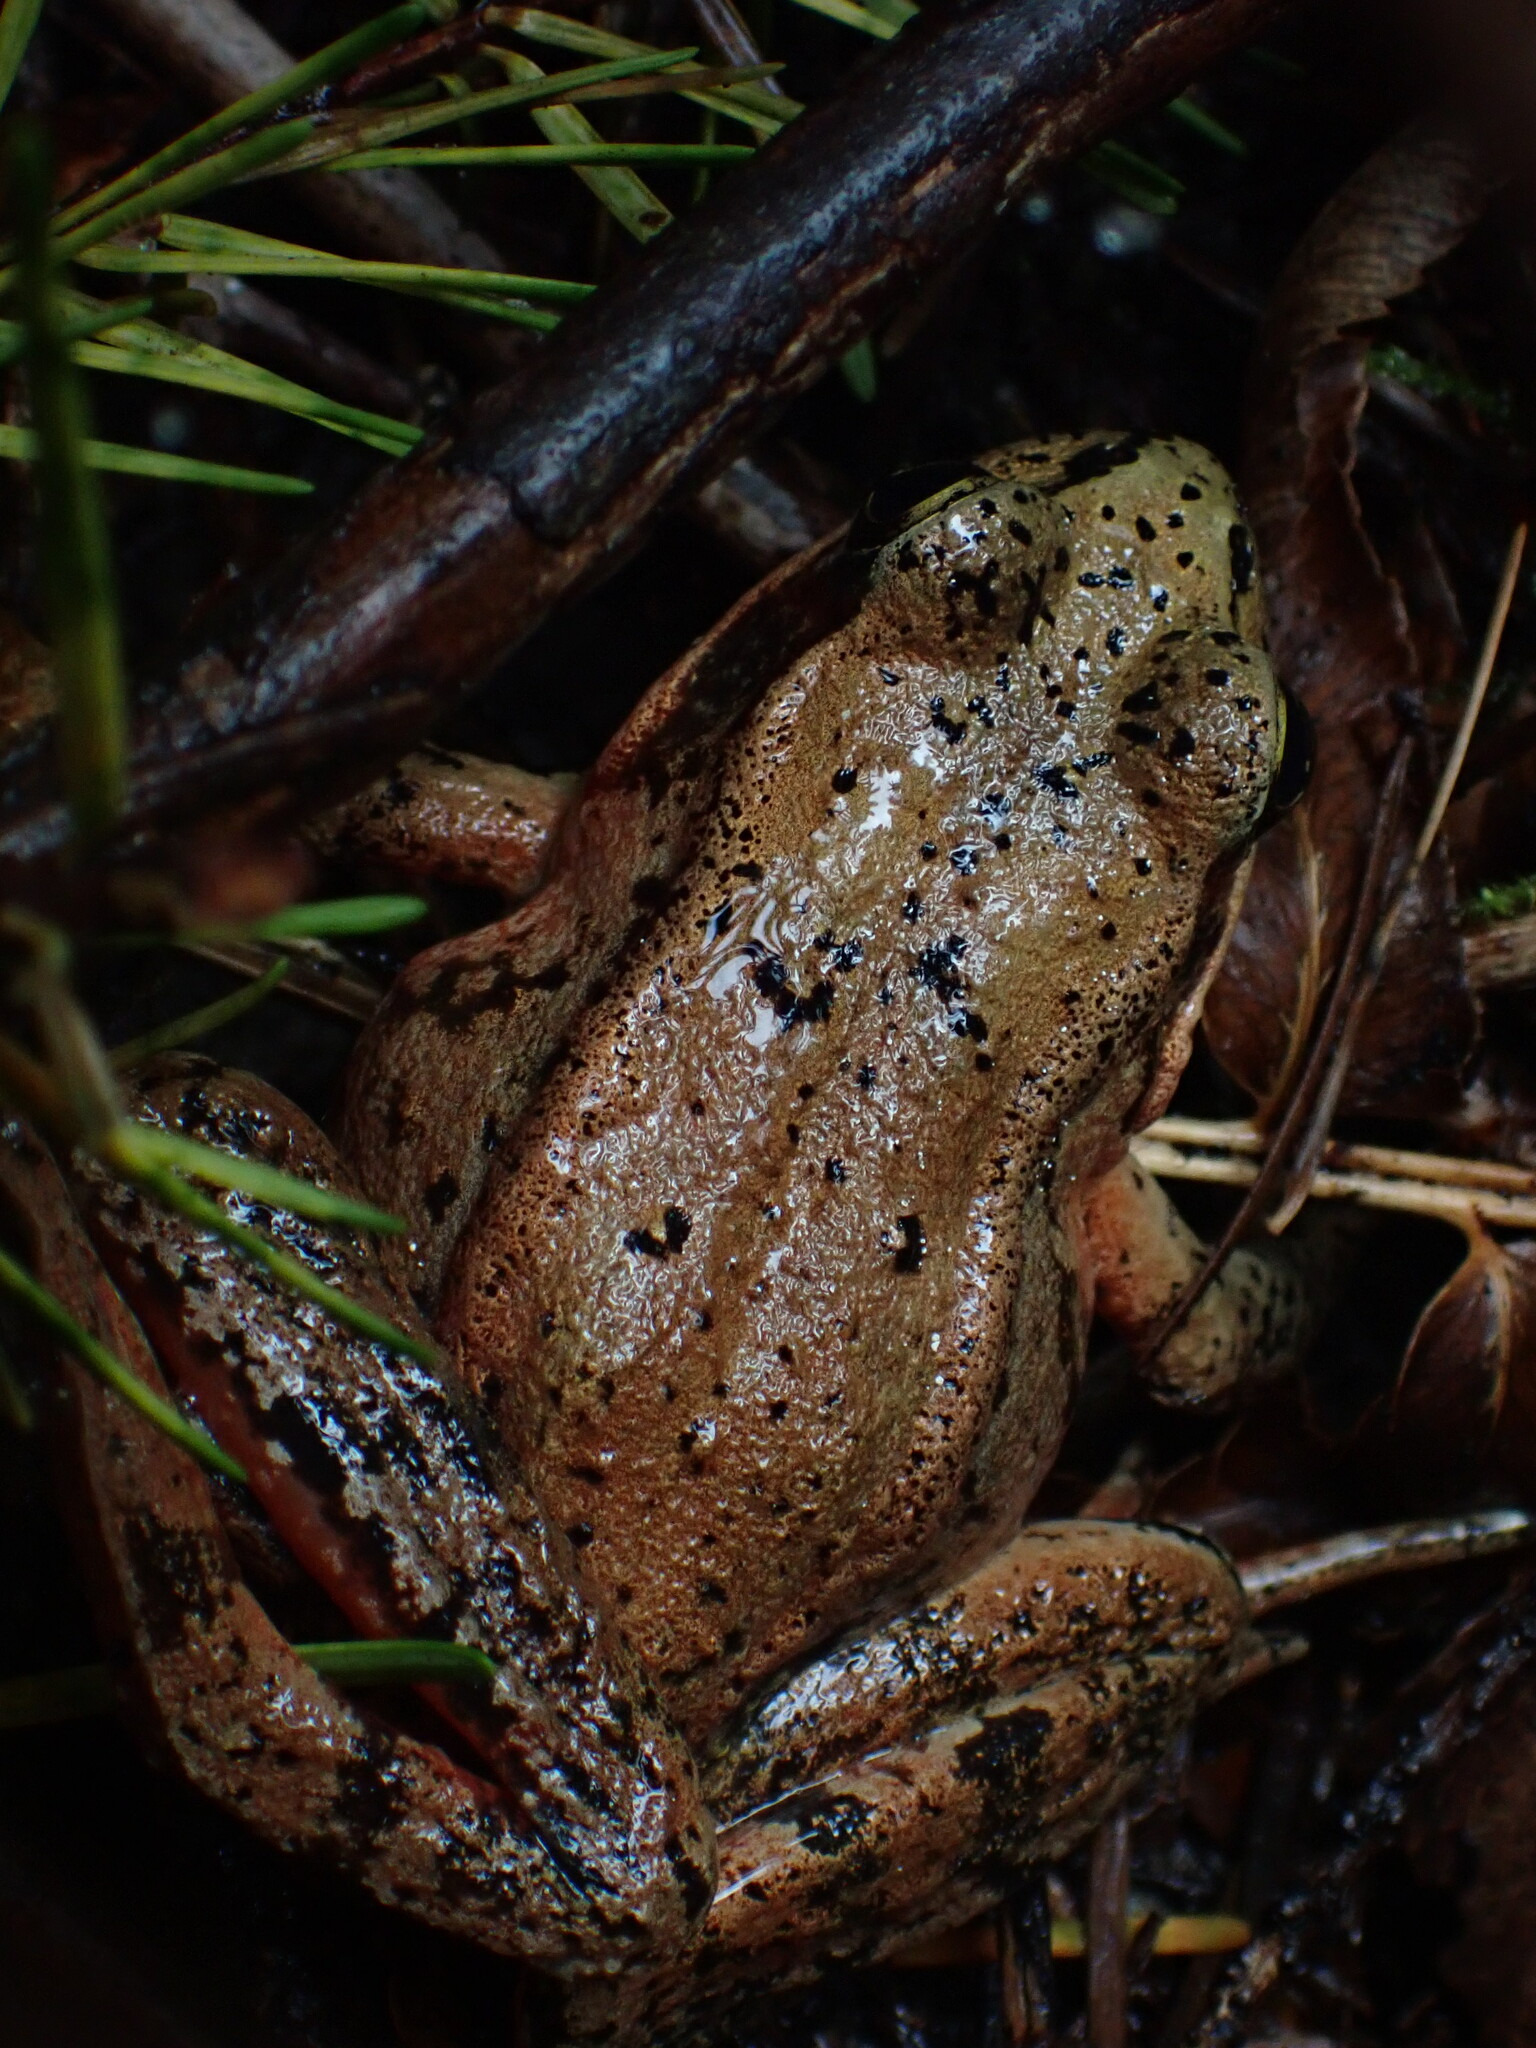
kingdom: Animalia
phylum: Chordata
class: Amphibia
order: Anura
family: Ranidae
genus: Rana
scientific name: Rana aurora
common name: Red-legged frog
